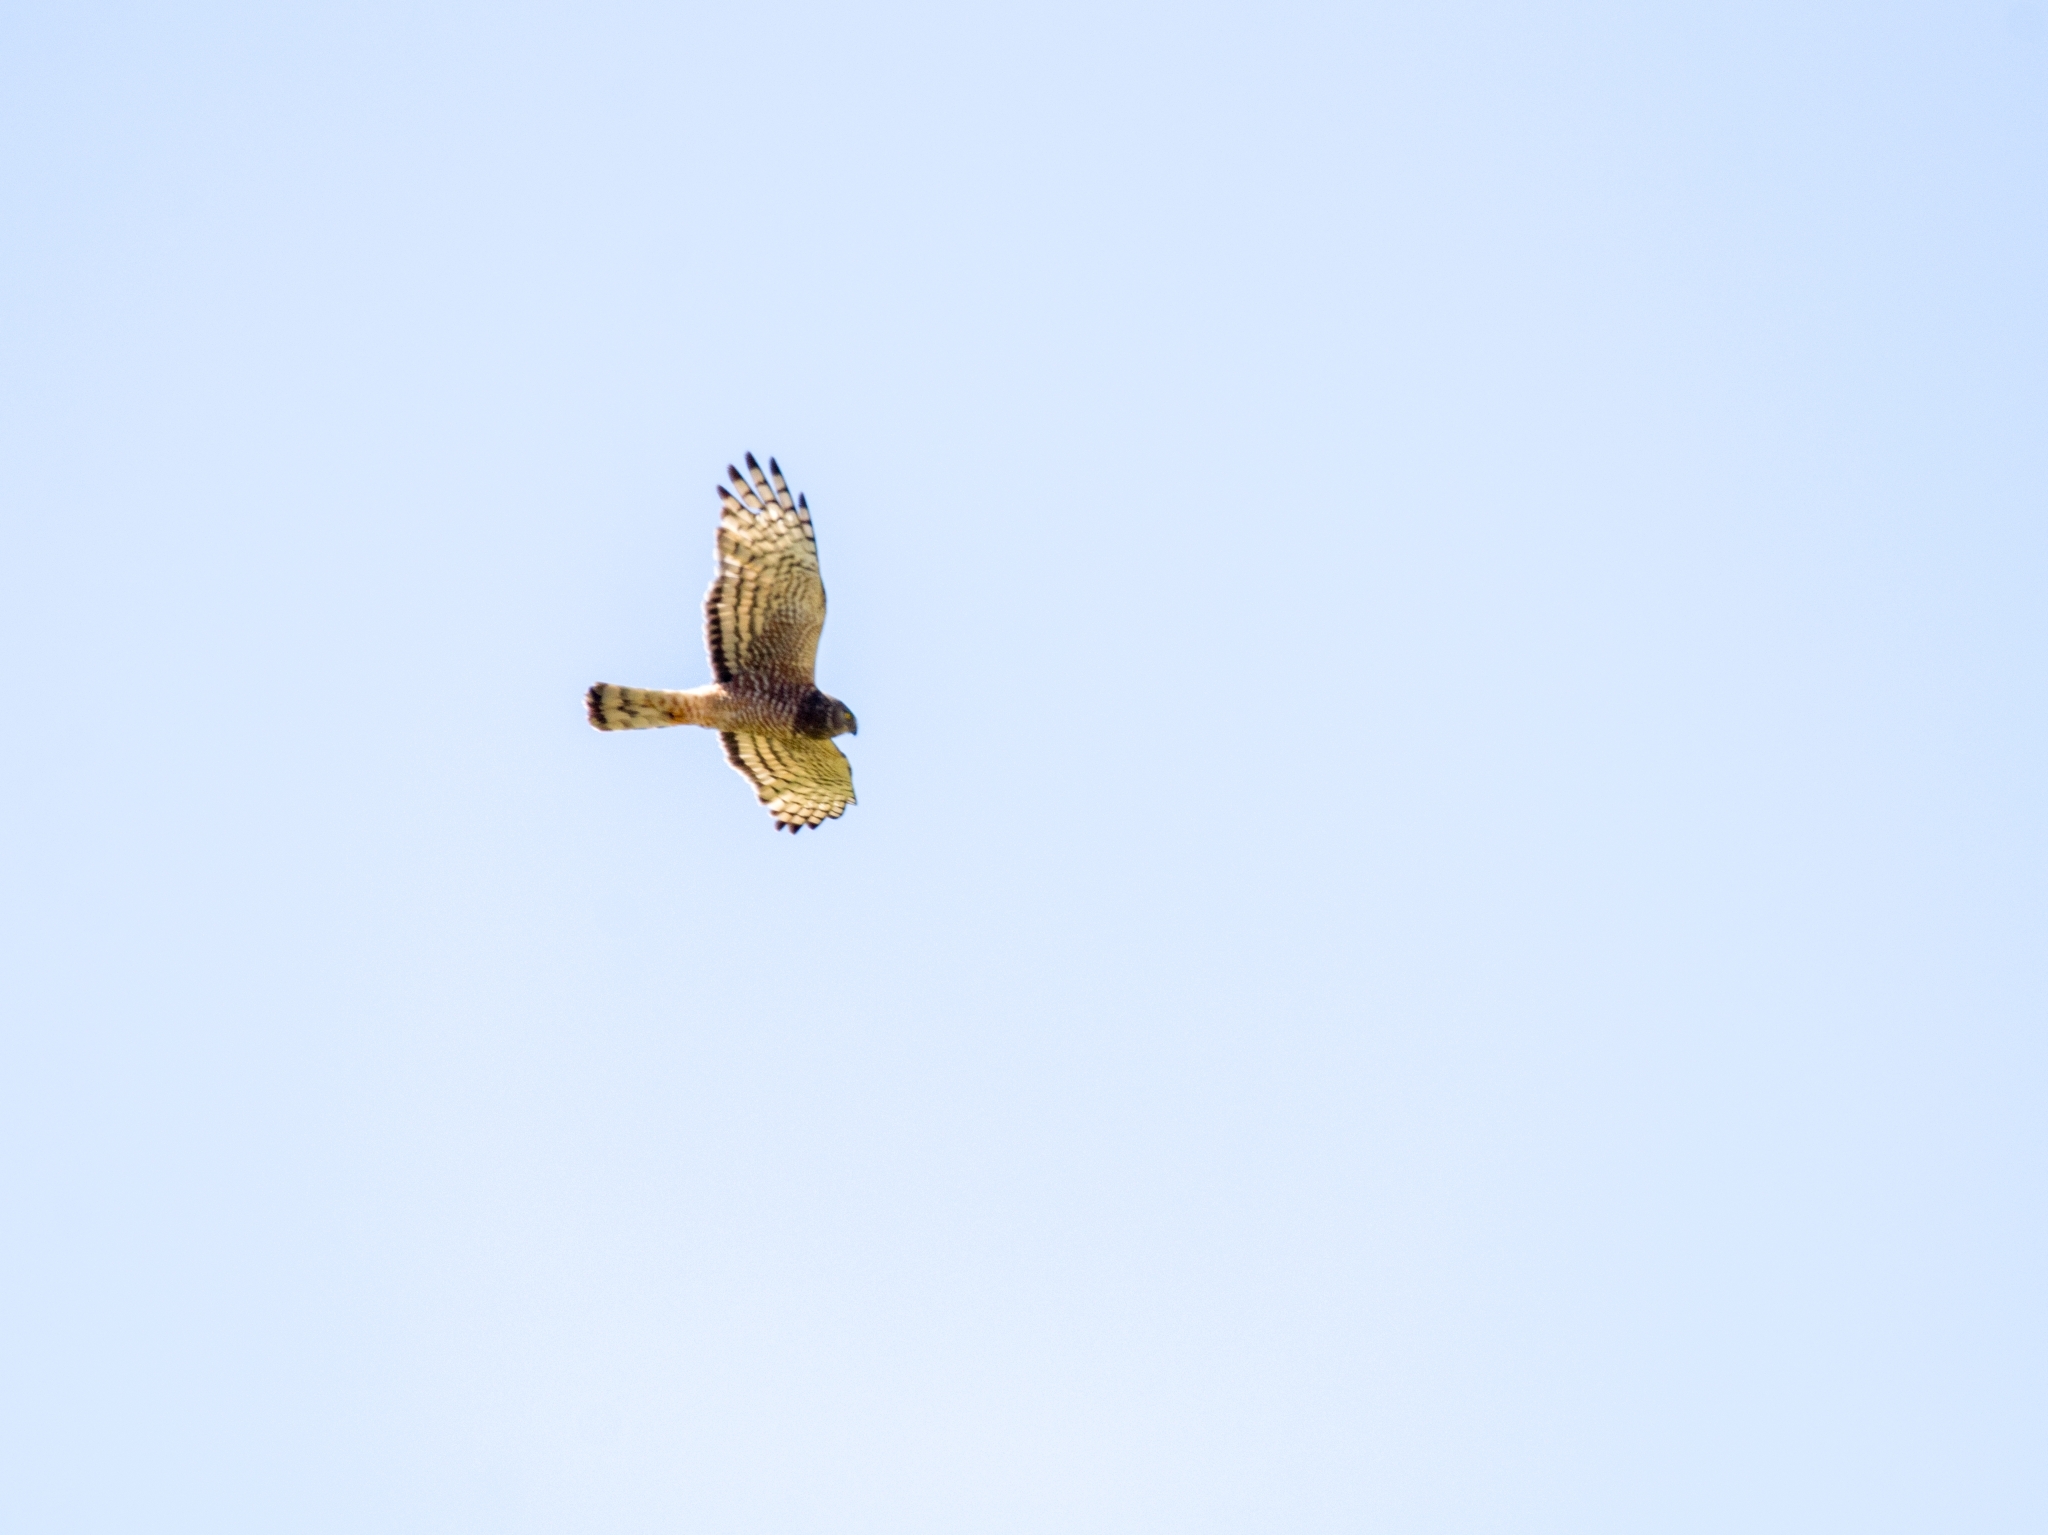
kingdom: Animalia
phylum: Chordata
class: Aves
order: Accipitriformes
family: Accipitridae
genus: Circus
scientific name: Circus cinereus
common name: Cinereous harrier
